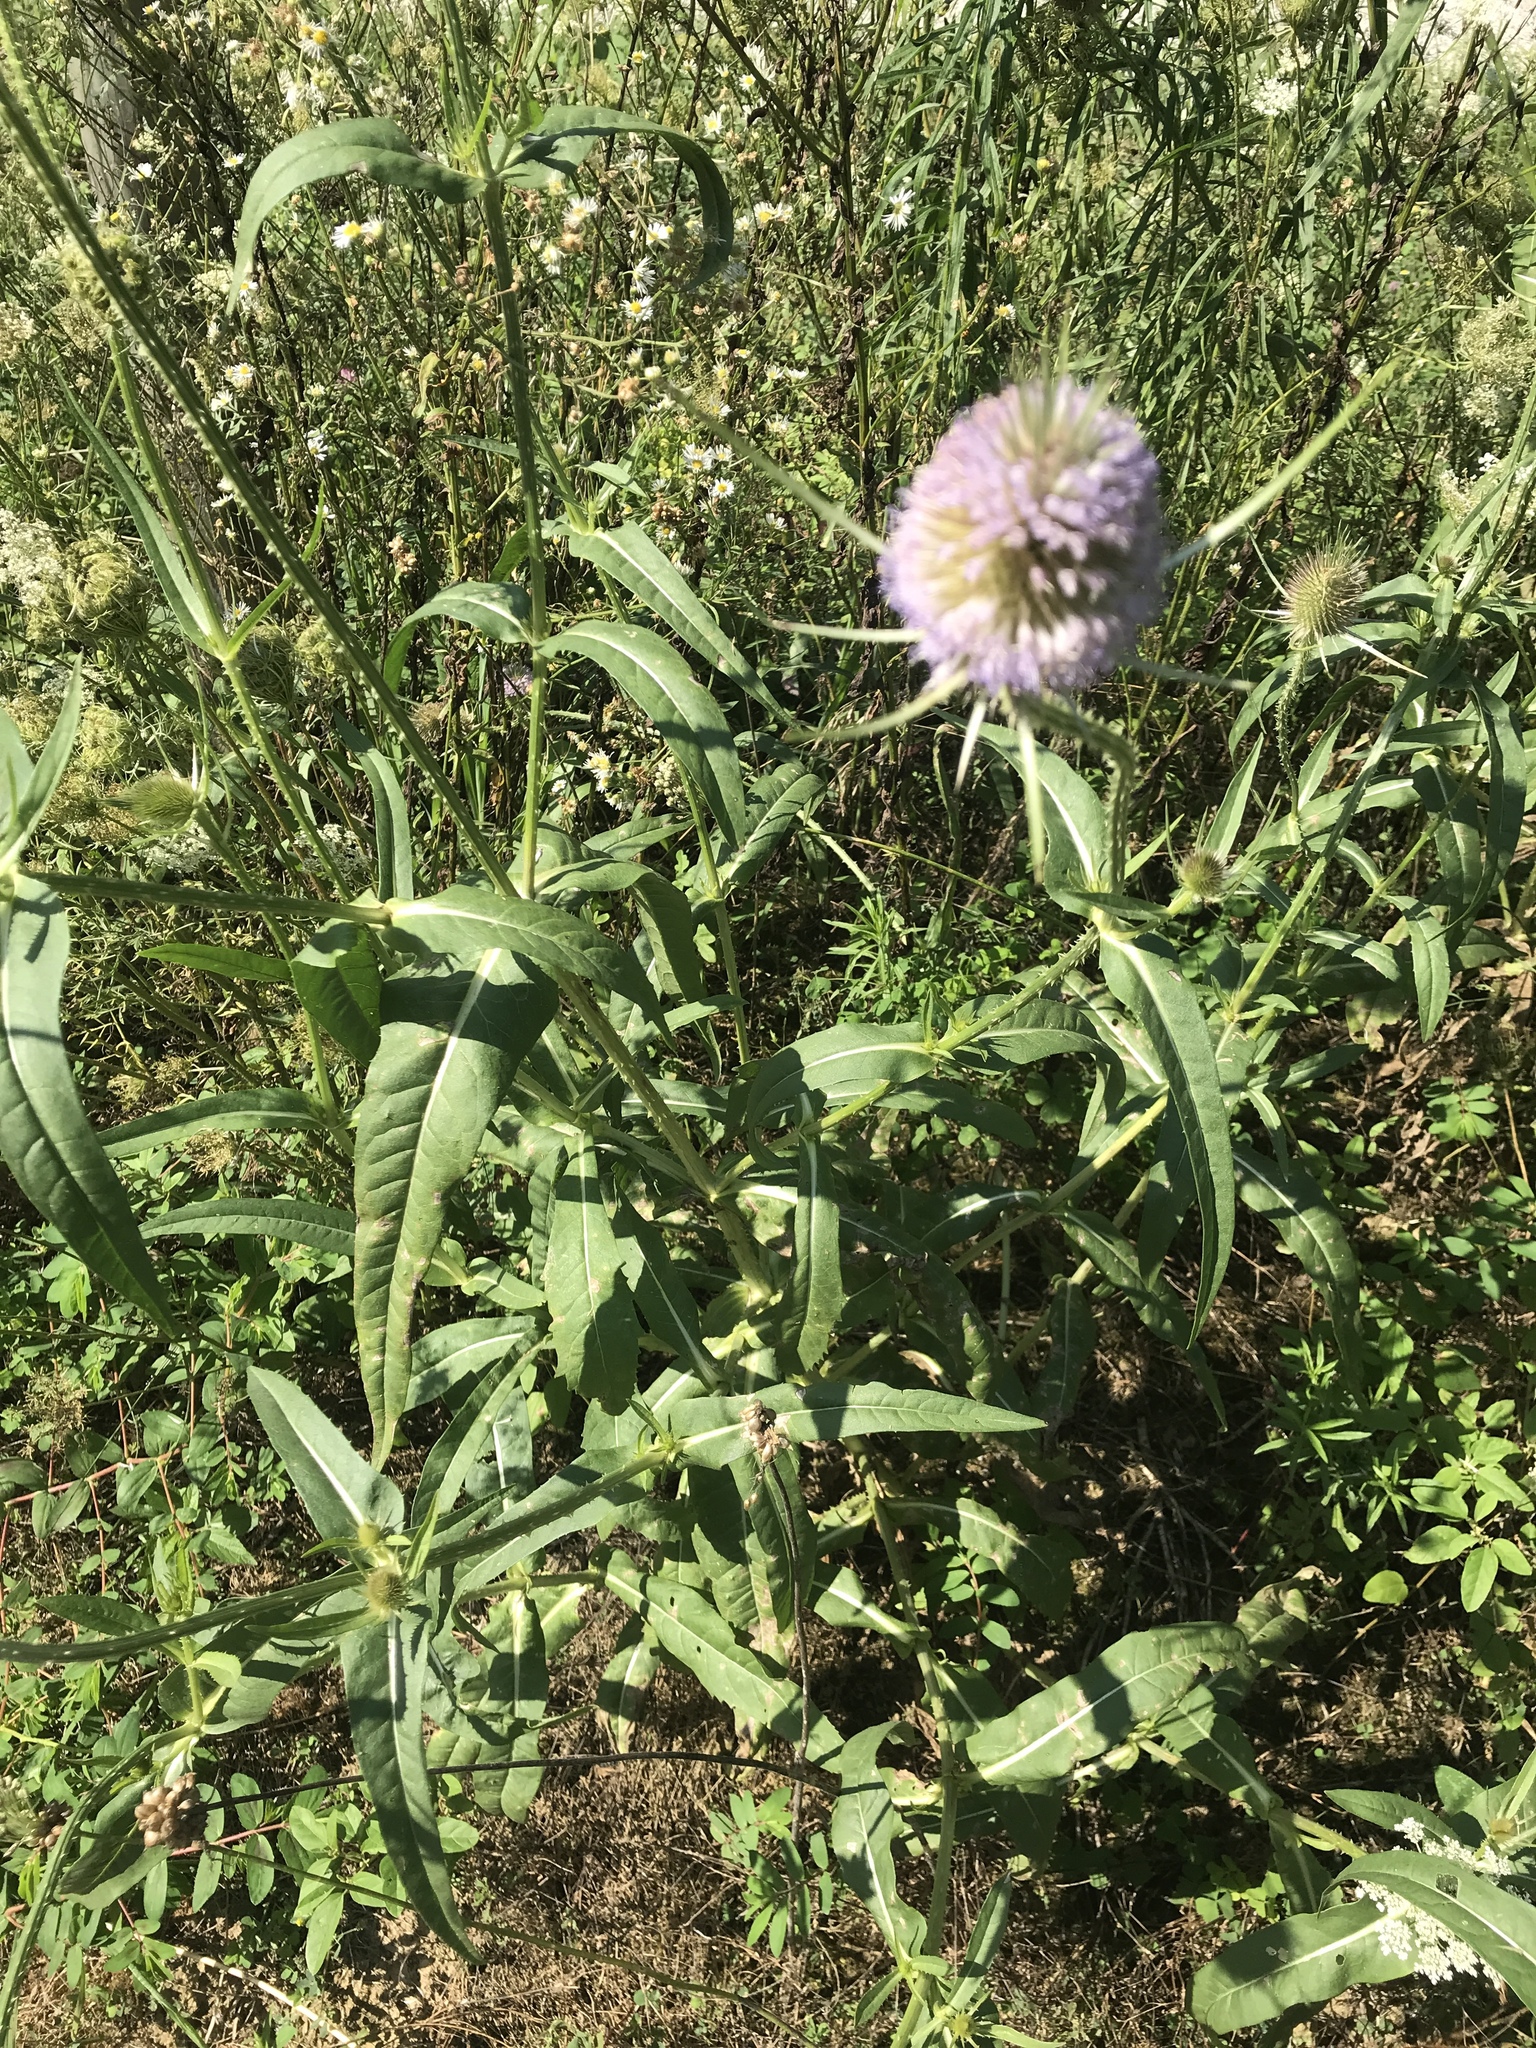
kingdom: Plantae
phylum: Tracheophyta
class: Magnoliopsida
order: Dipsacales
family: Caprifoliaceae
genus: Dipsacus
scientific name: Dipsacus fullonum
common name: Teasel
